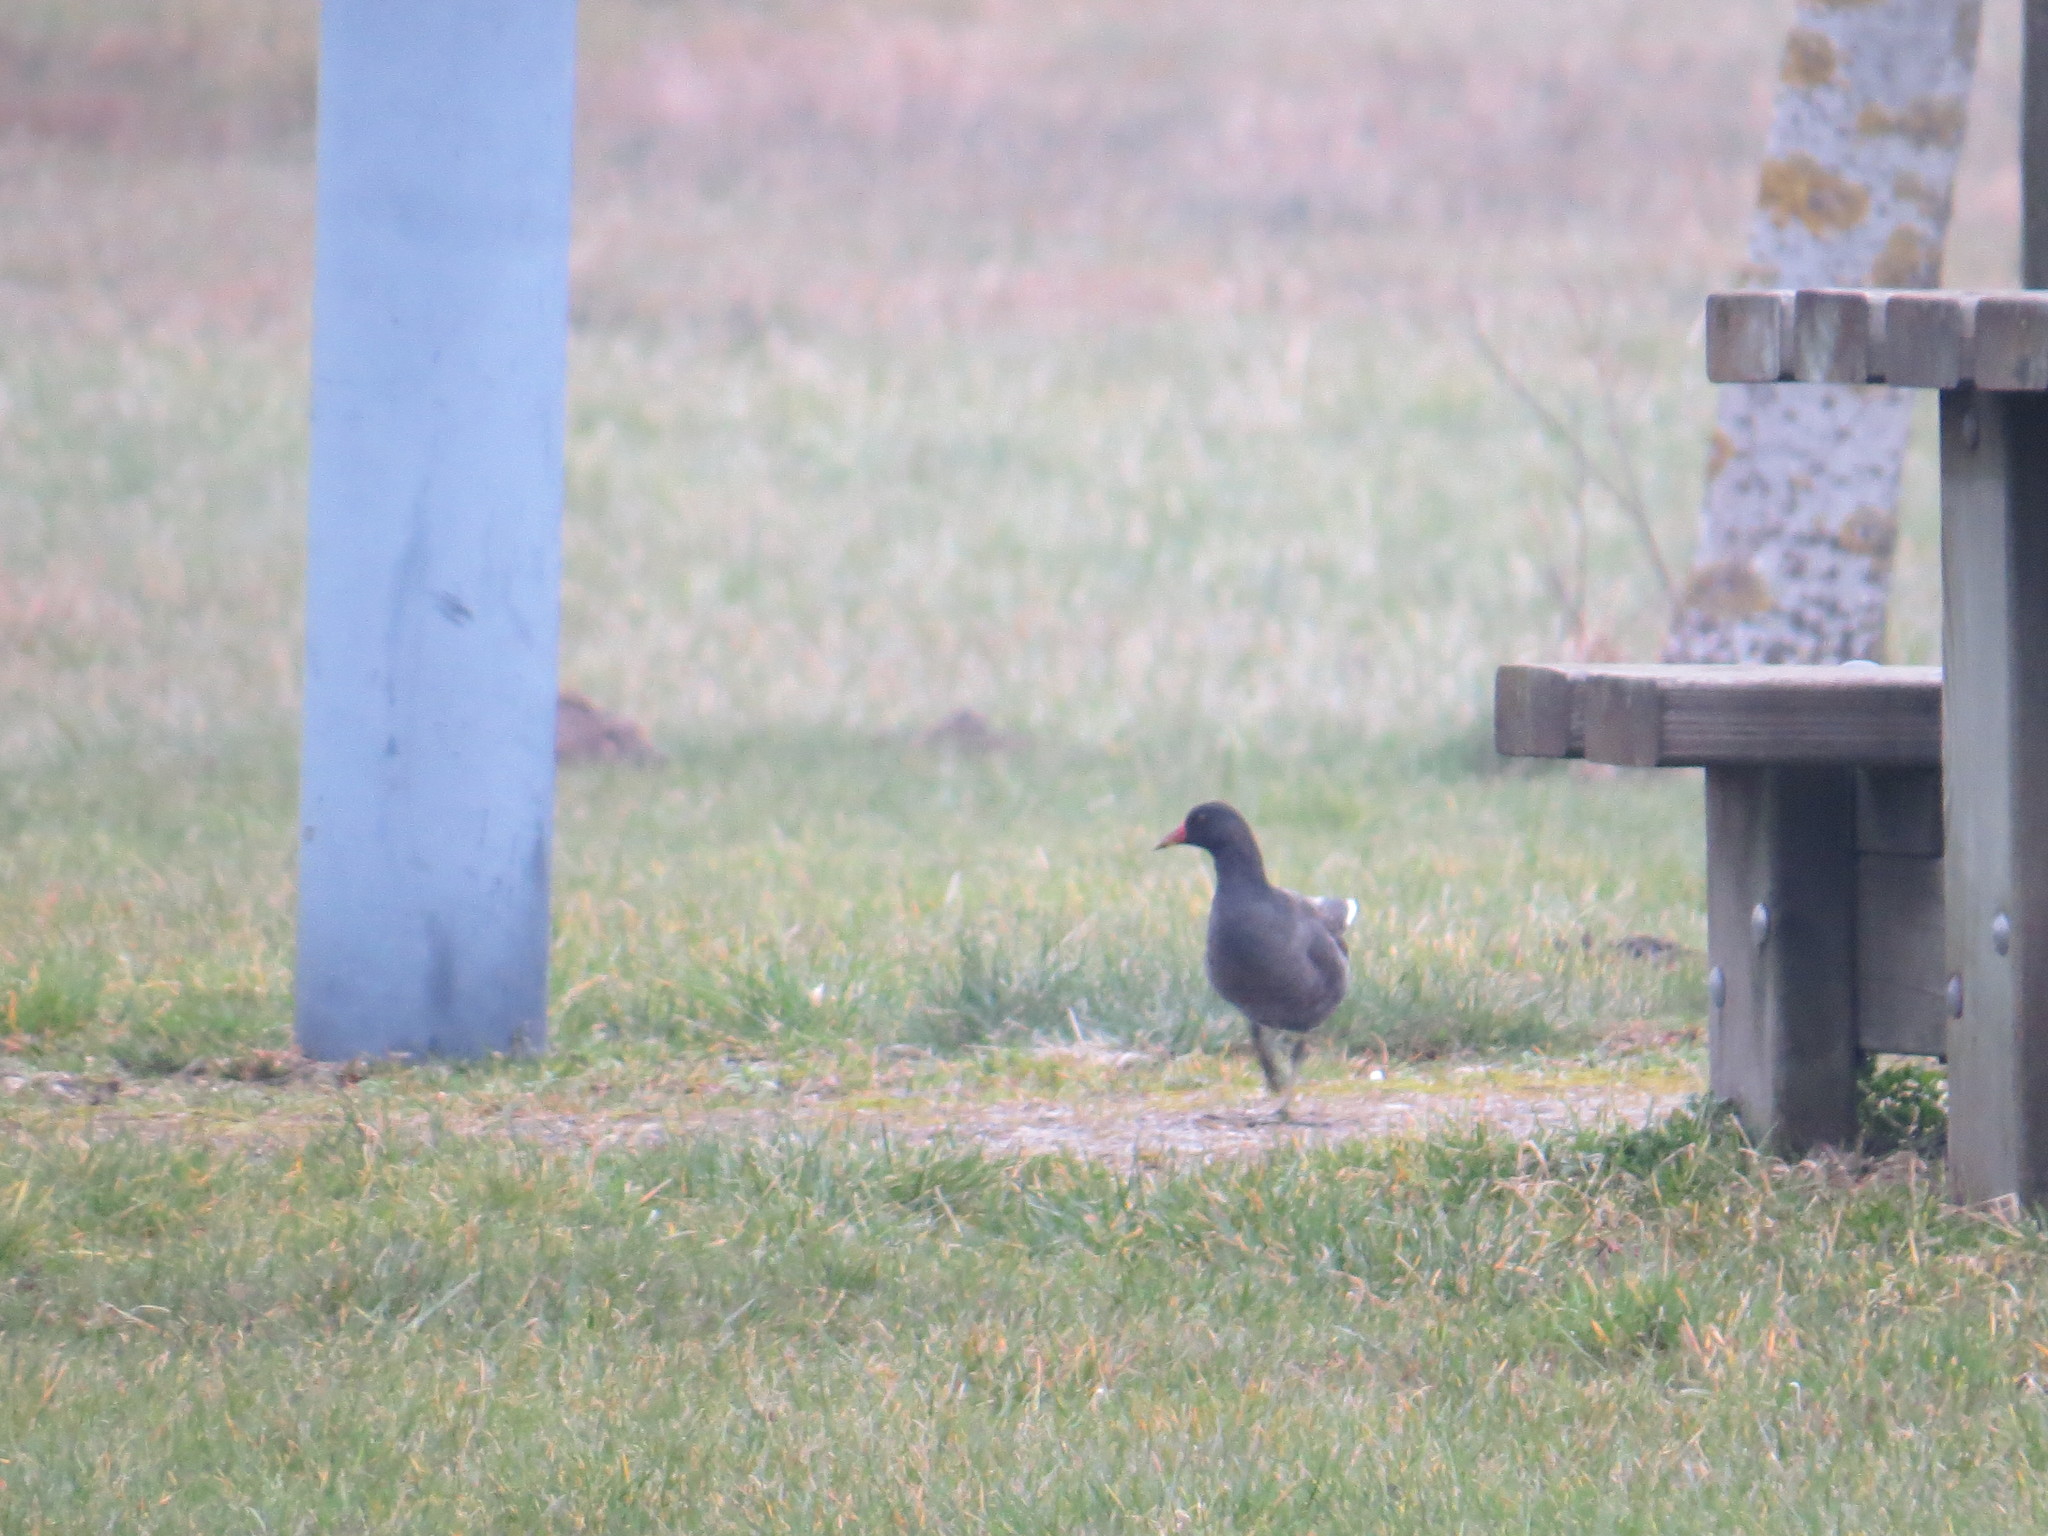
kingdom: Animalia
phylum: Chordata
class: Aves
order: Gruiformes
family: Rallidae
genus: Gallinula
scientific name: Gallinula chloropus
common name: Common moorhen
